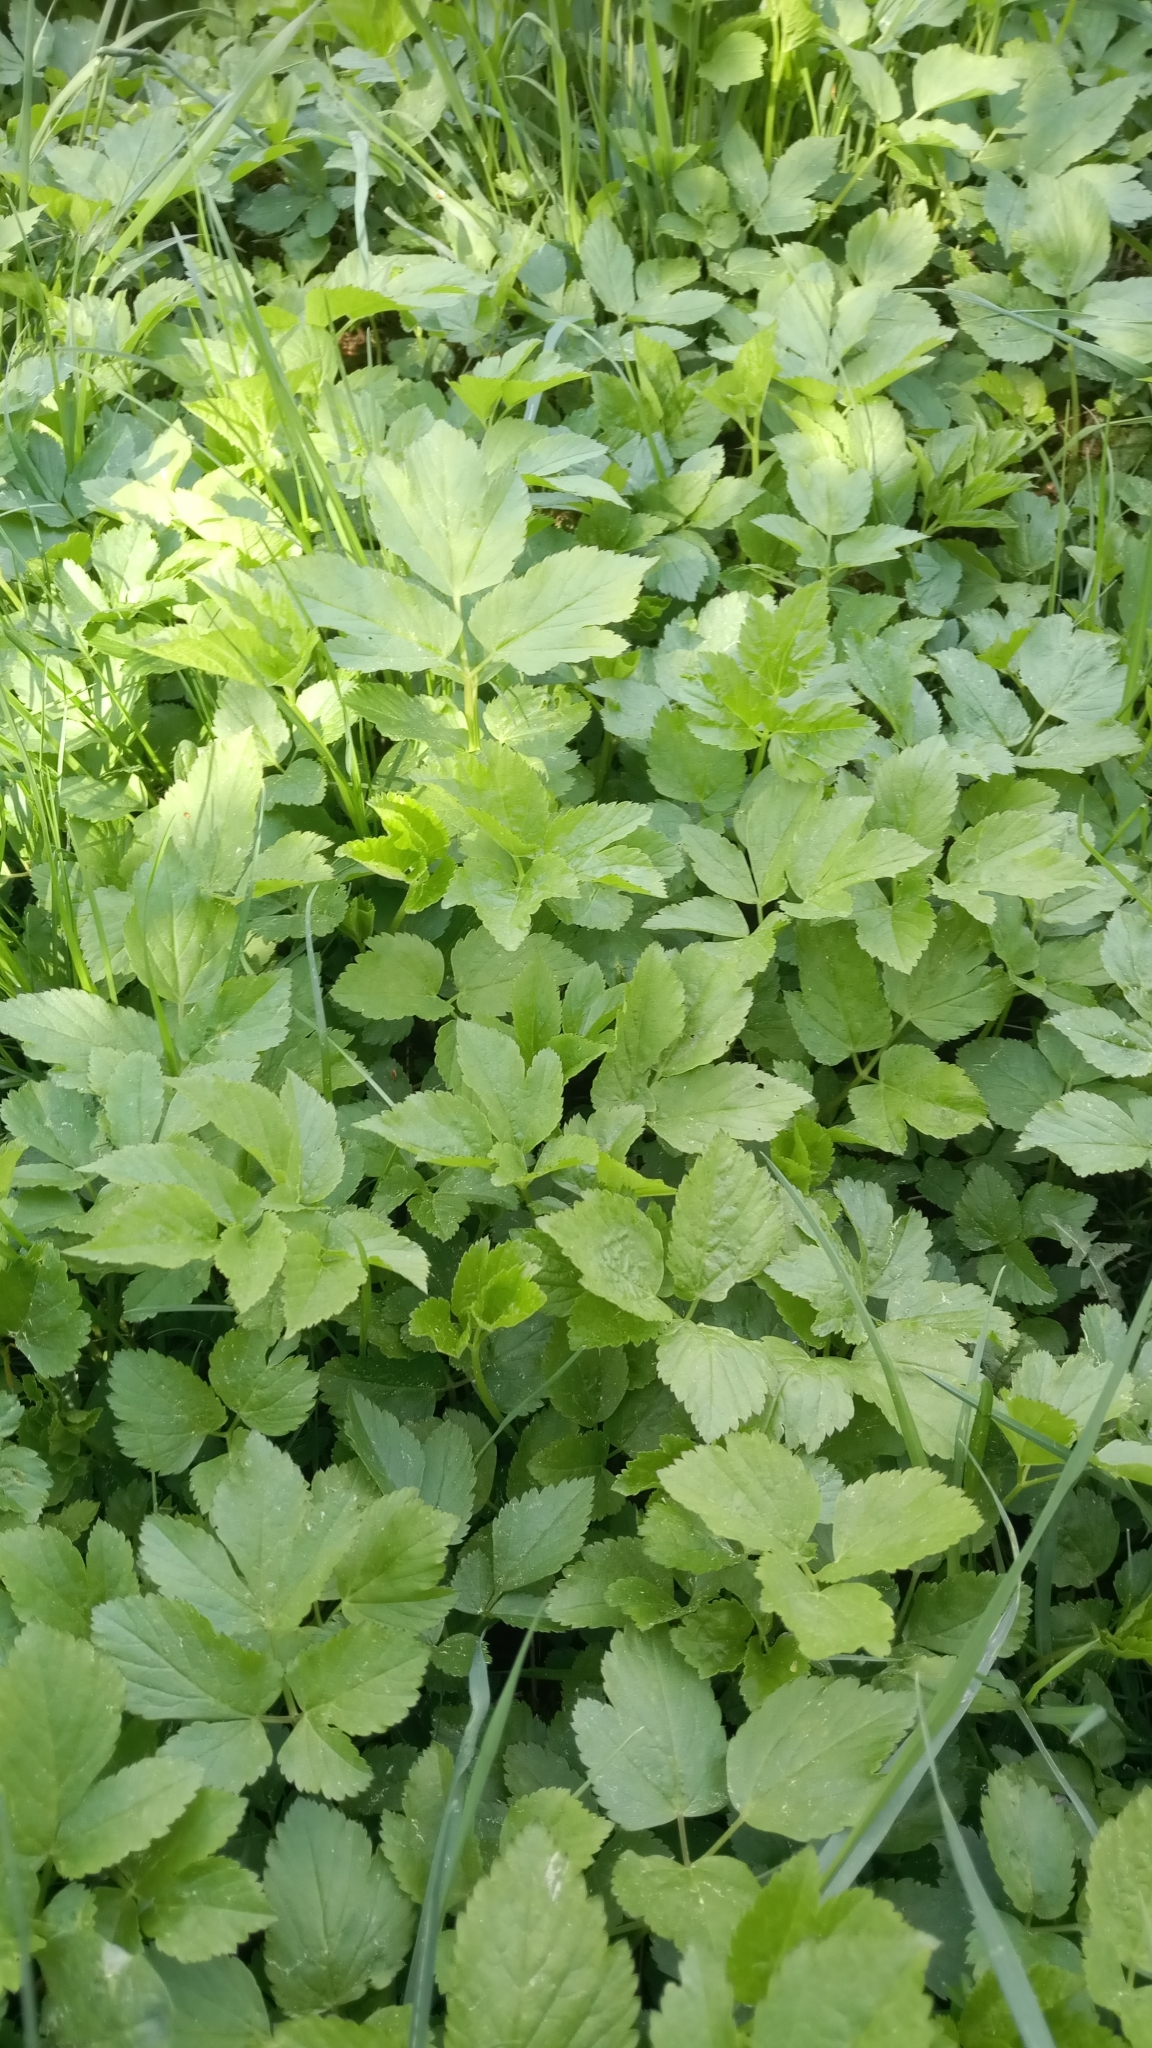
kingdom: Plantae
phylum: Tracheophyta
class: Magnoliopsida
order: Apiales
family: Apiaceae
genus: Aegopodium
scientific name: Aegopodium podagraria
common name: Ground-elder
